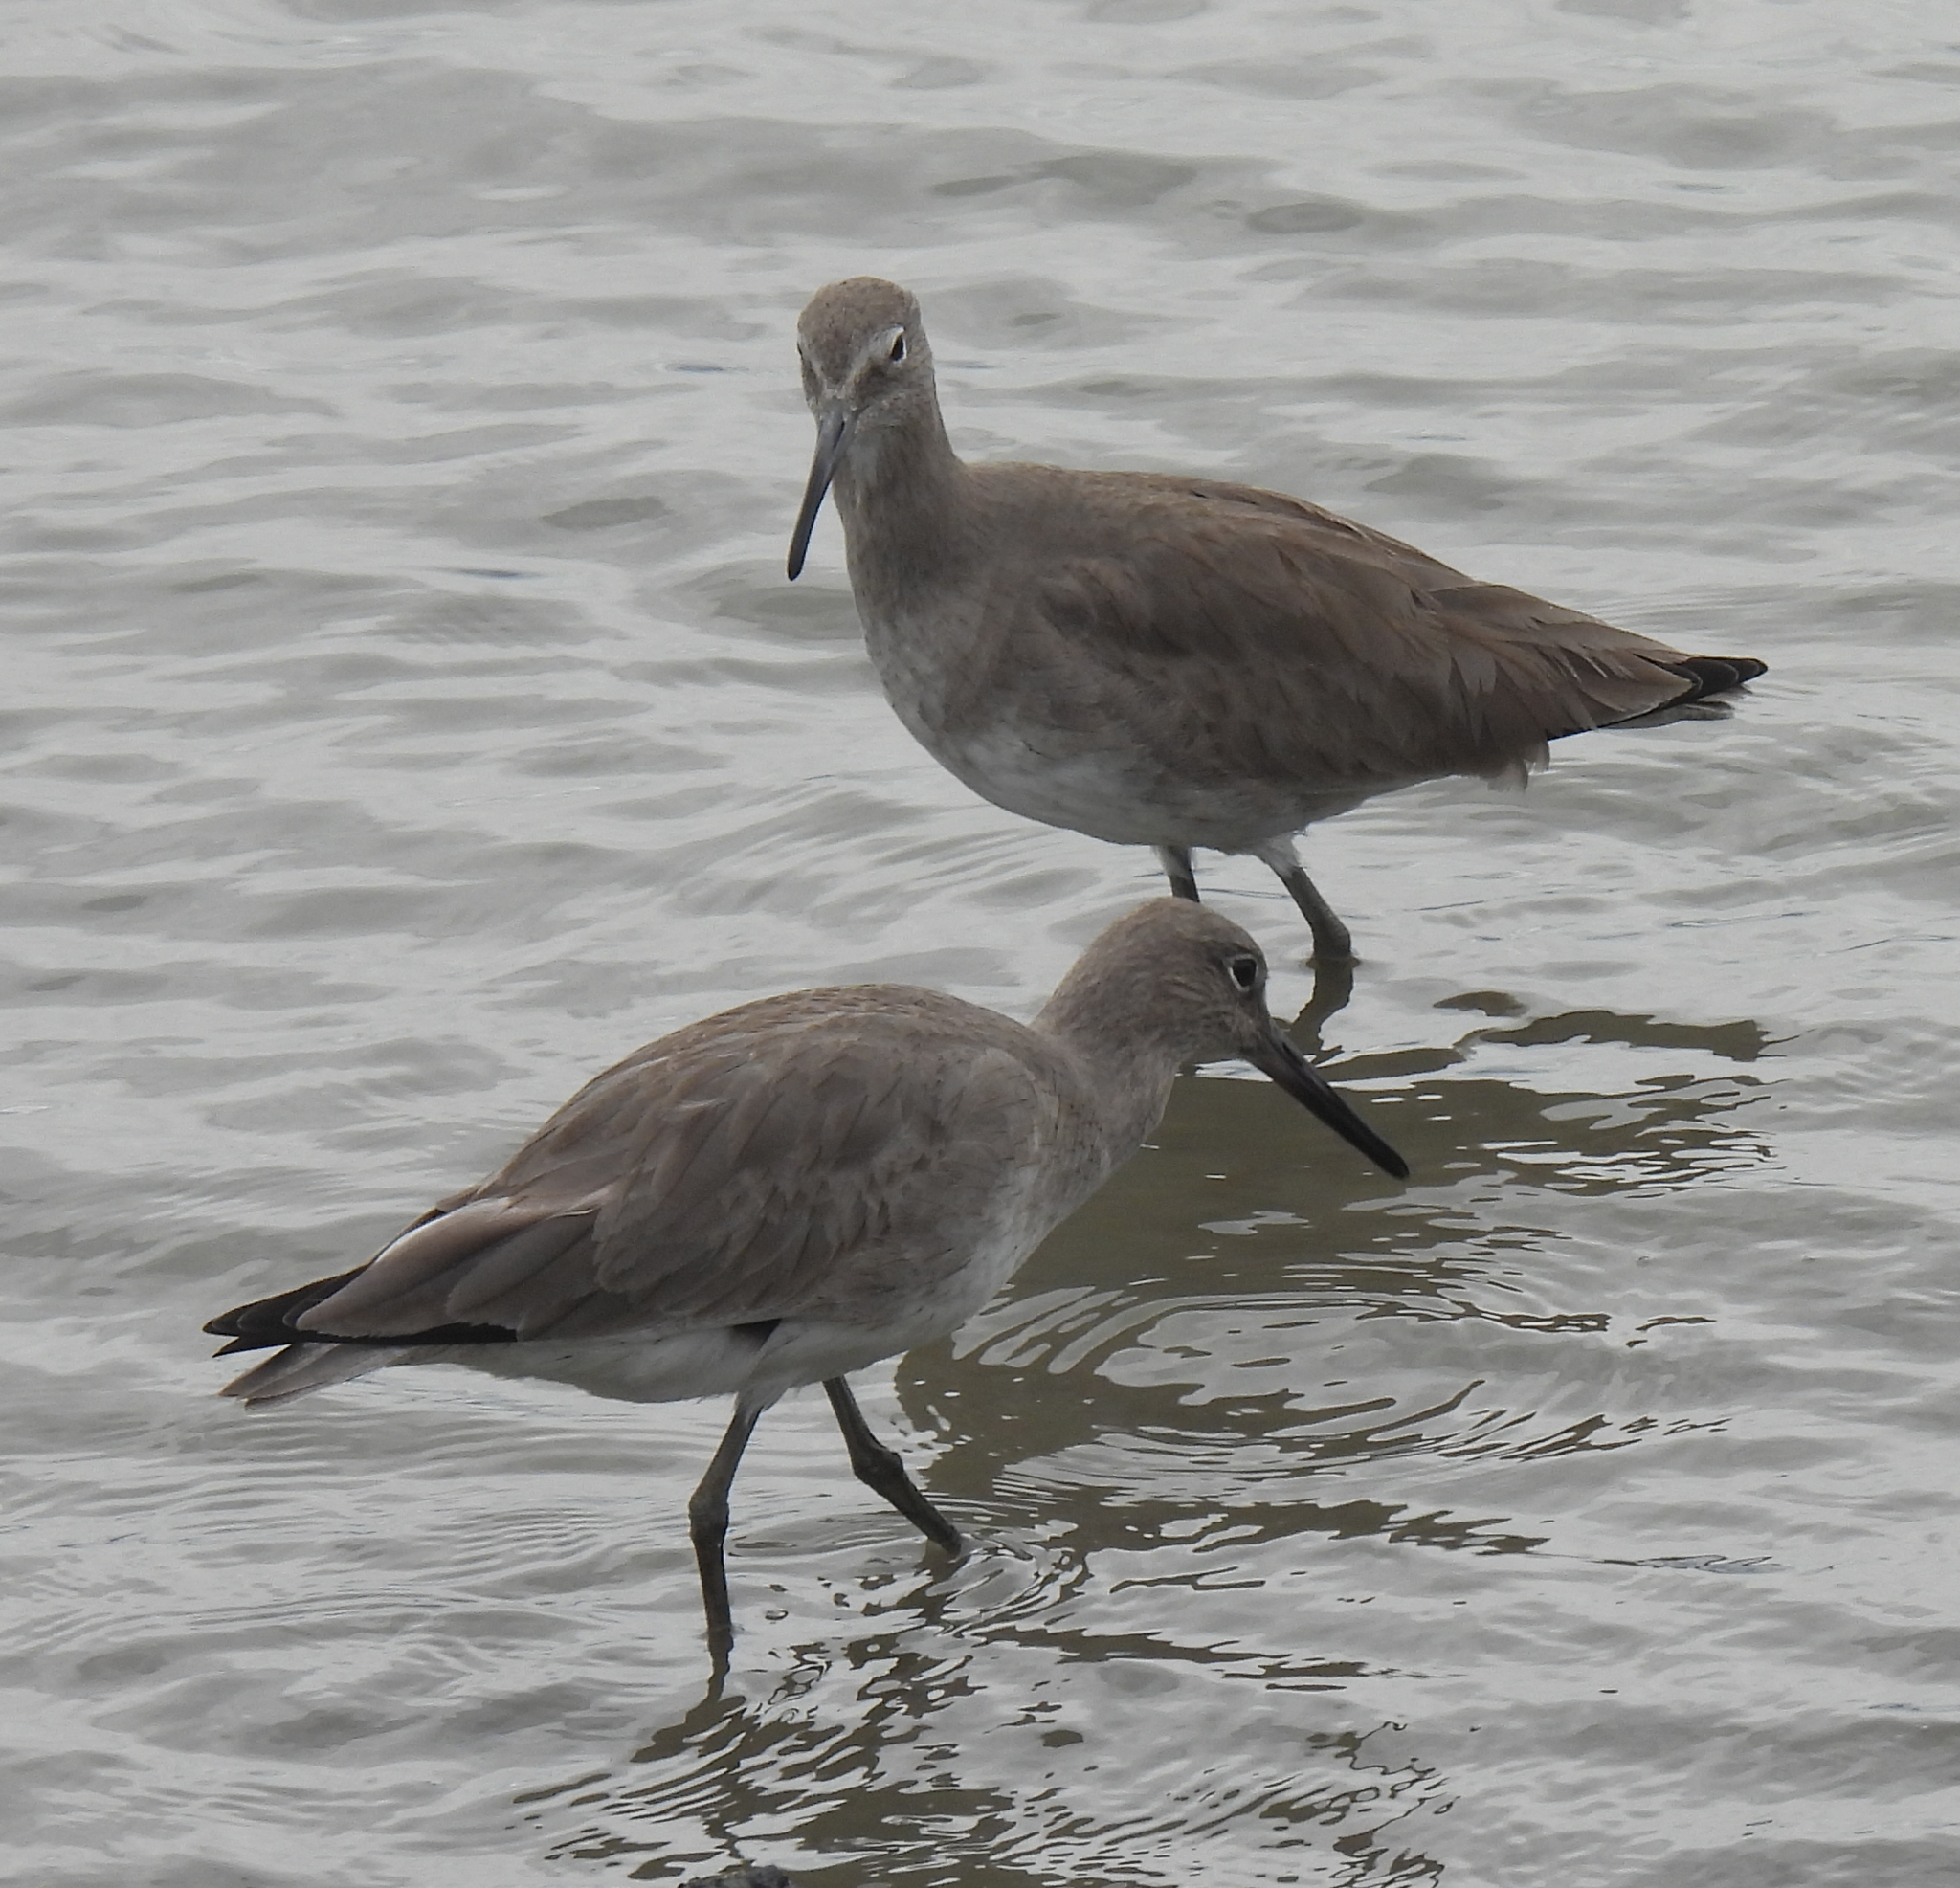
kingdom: Animalia
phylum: Chordata
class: Aves
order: Charadriiformes
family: Scolopacidae
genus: Tringa
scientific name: Tringa semipalmata
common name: Willet
